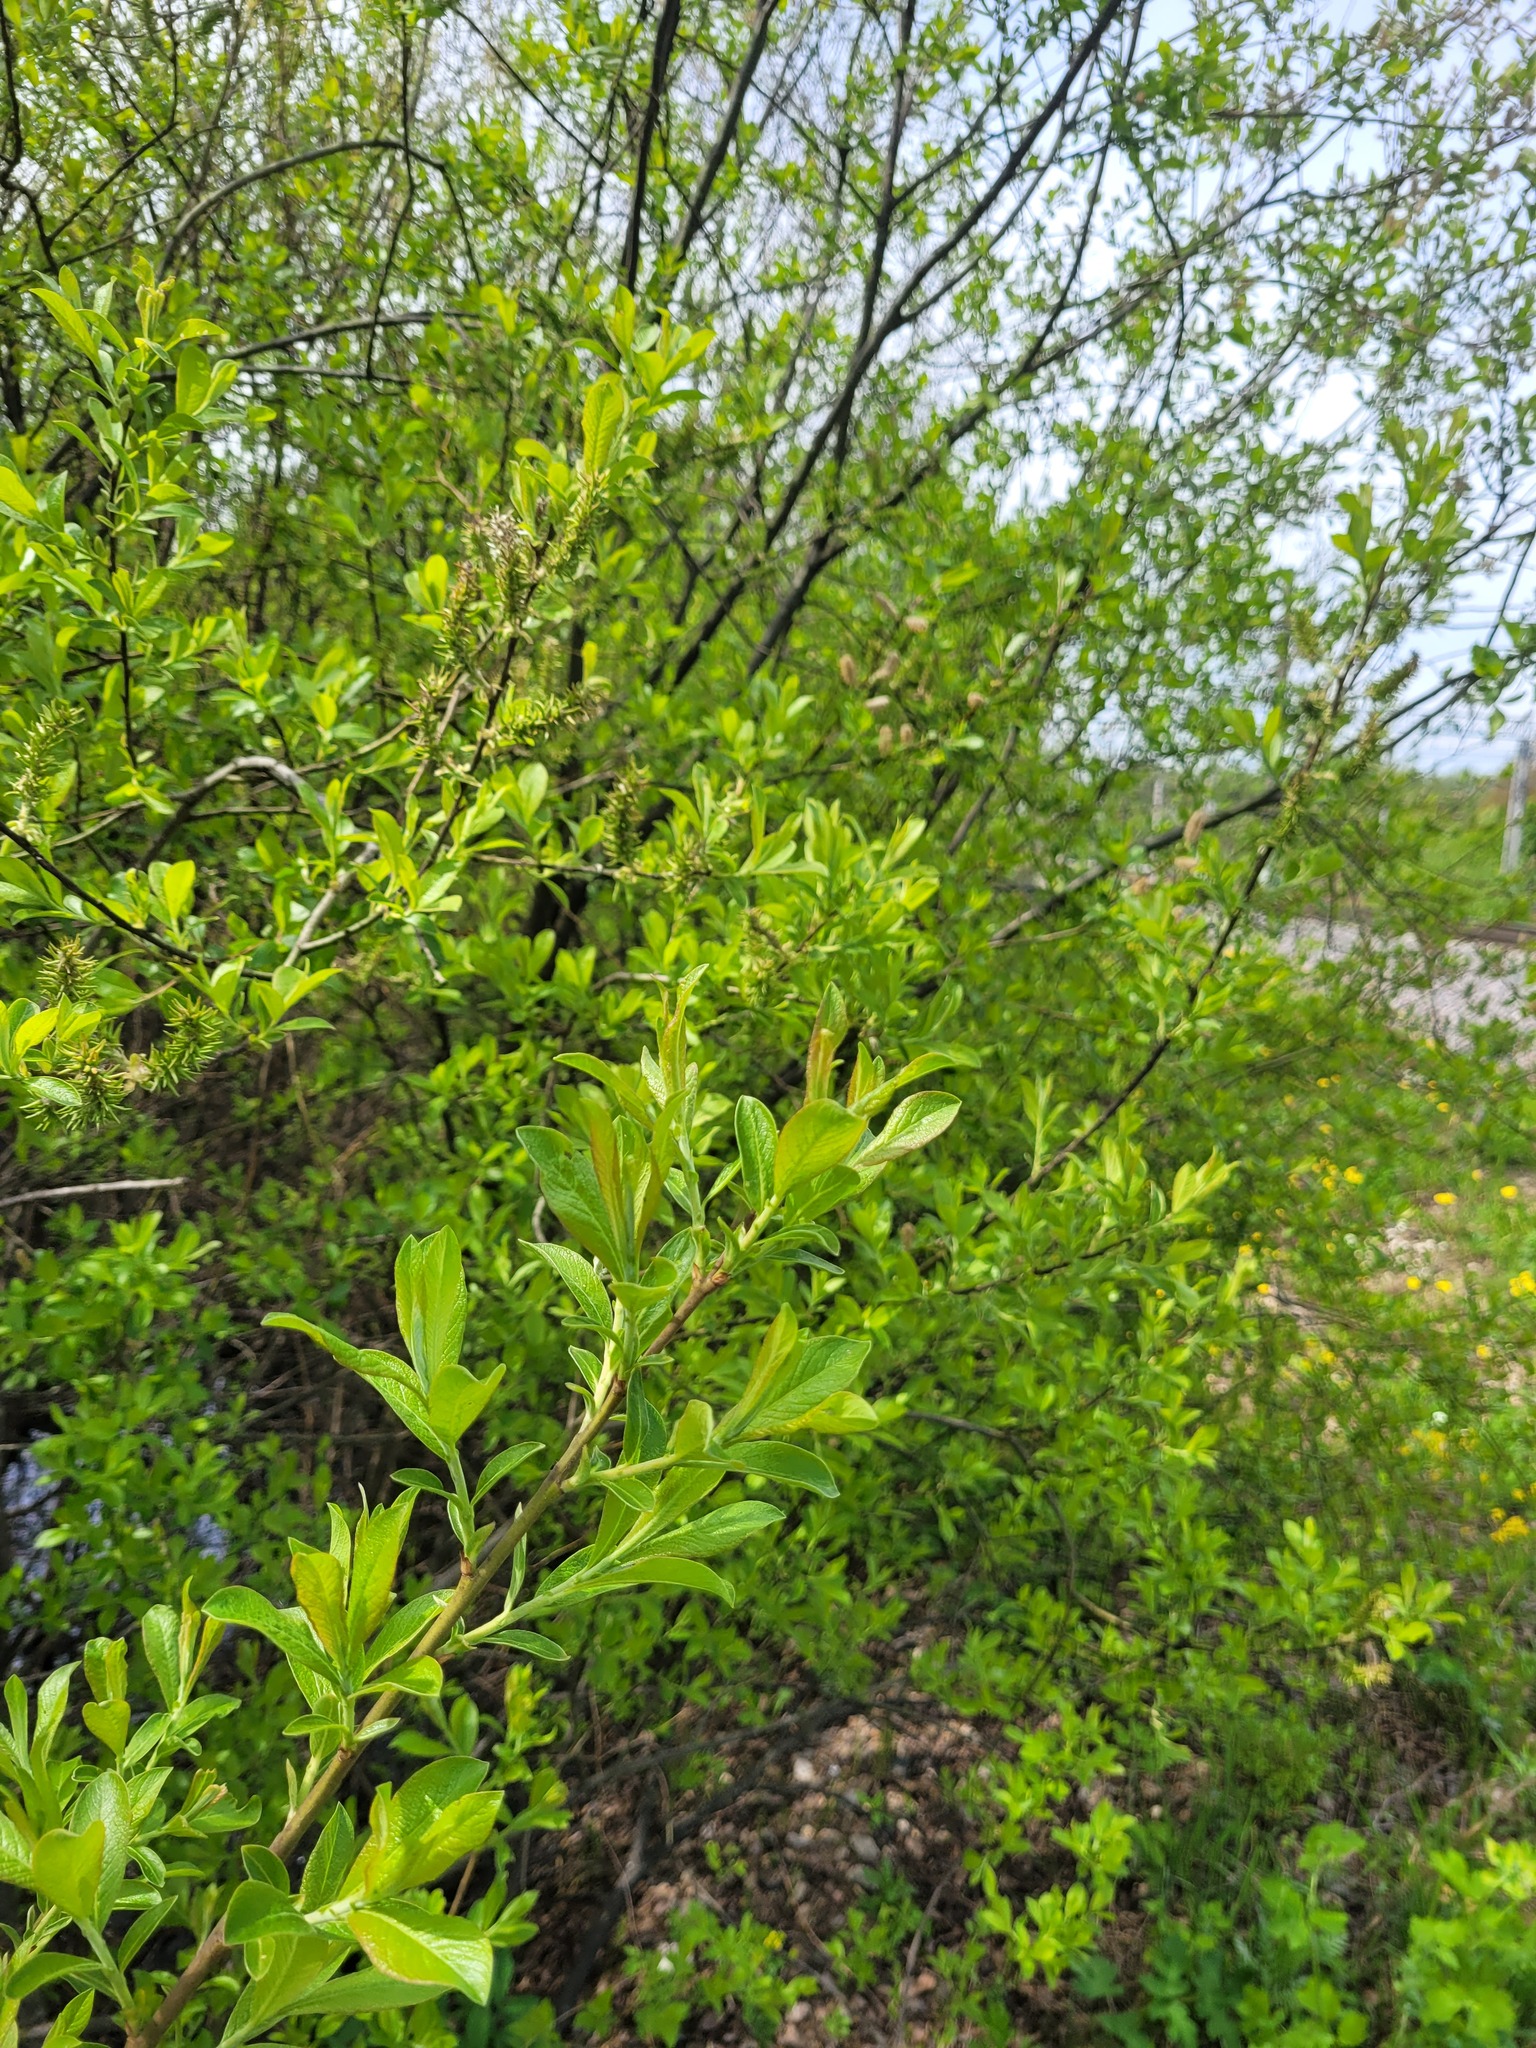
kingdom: Plantae
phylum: Tracheophyta
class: Magnoliopsida
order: Malpighiales
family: Salicaceae
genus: Salix
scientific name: Salix cinerea
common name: Common sallow
